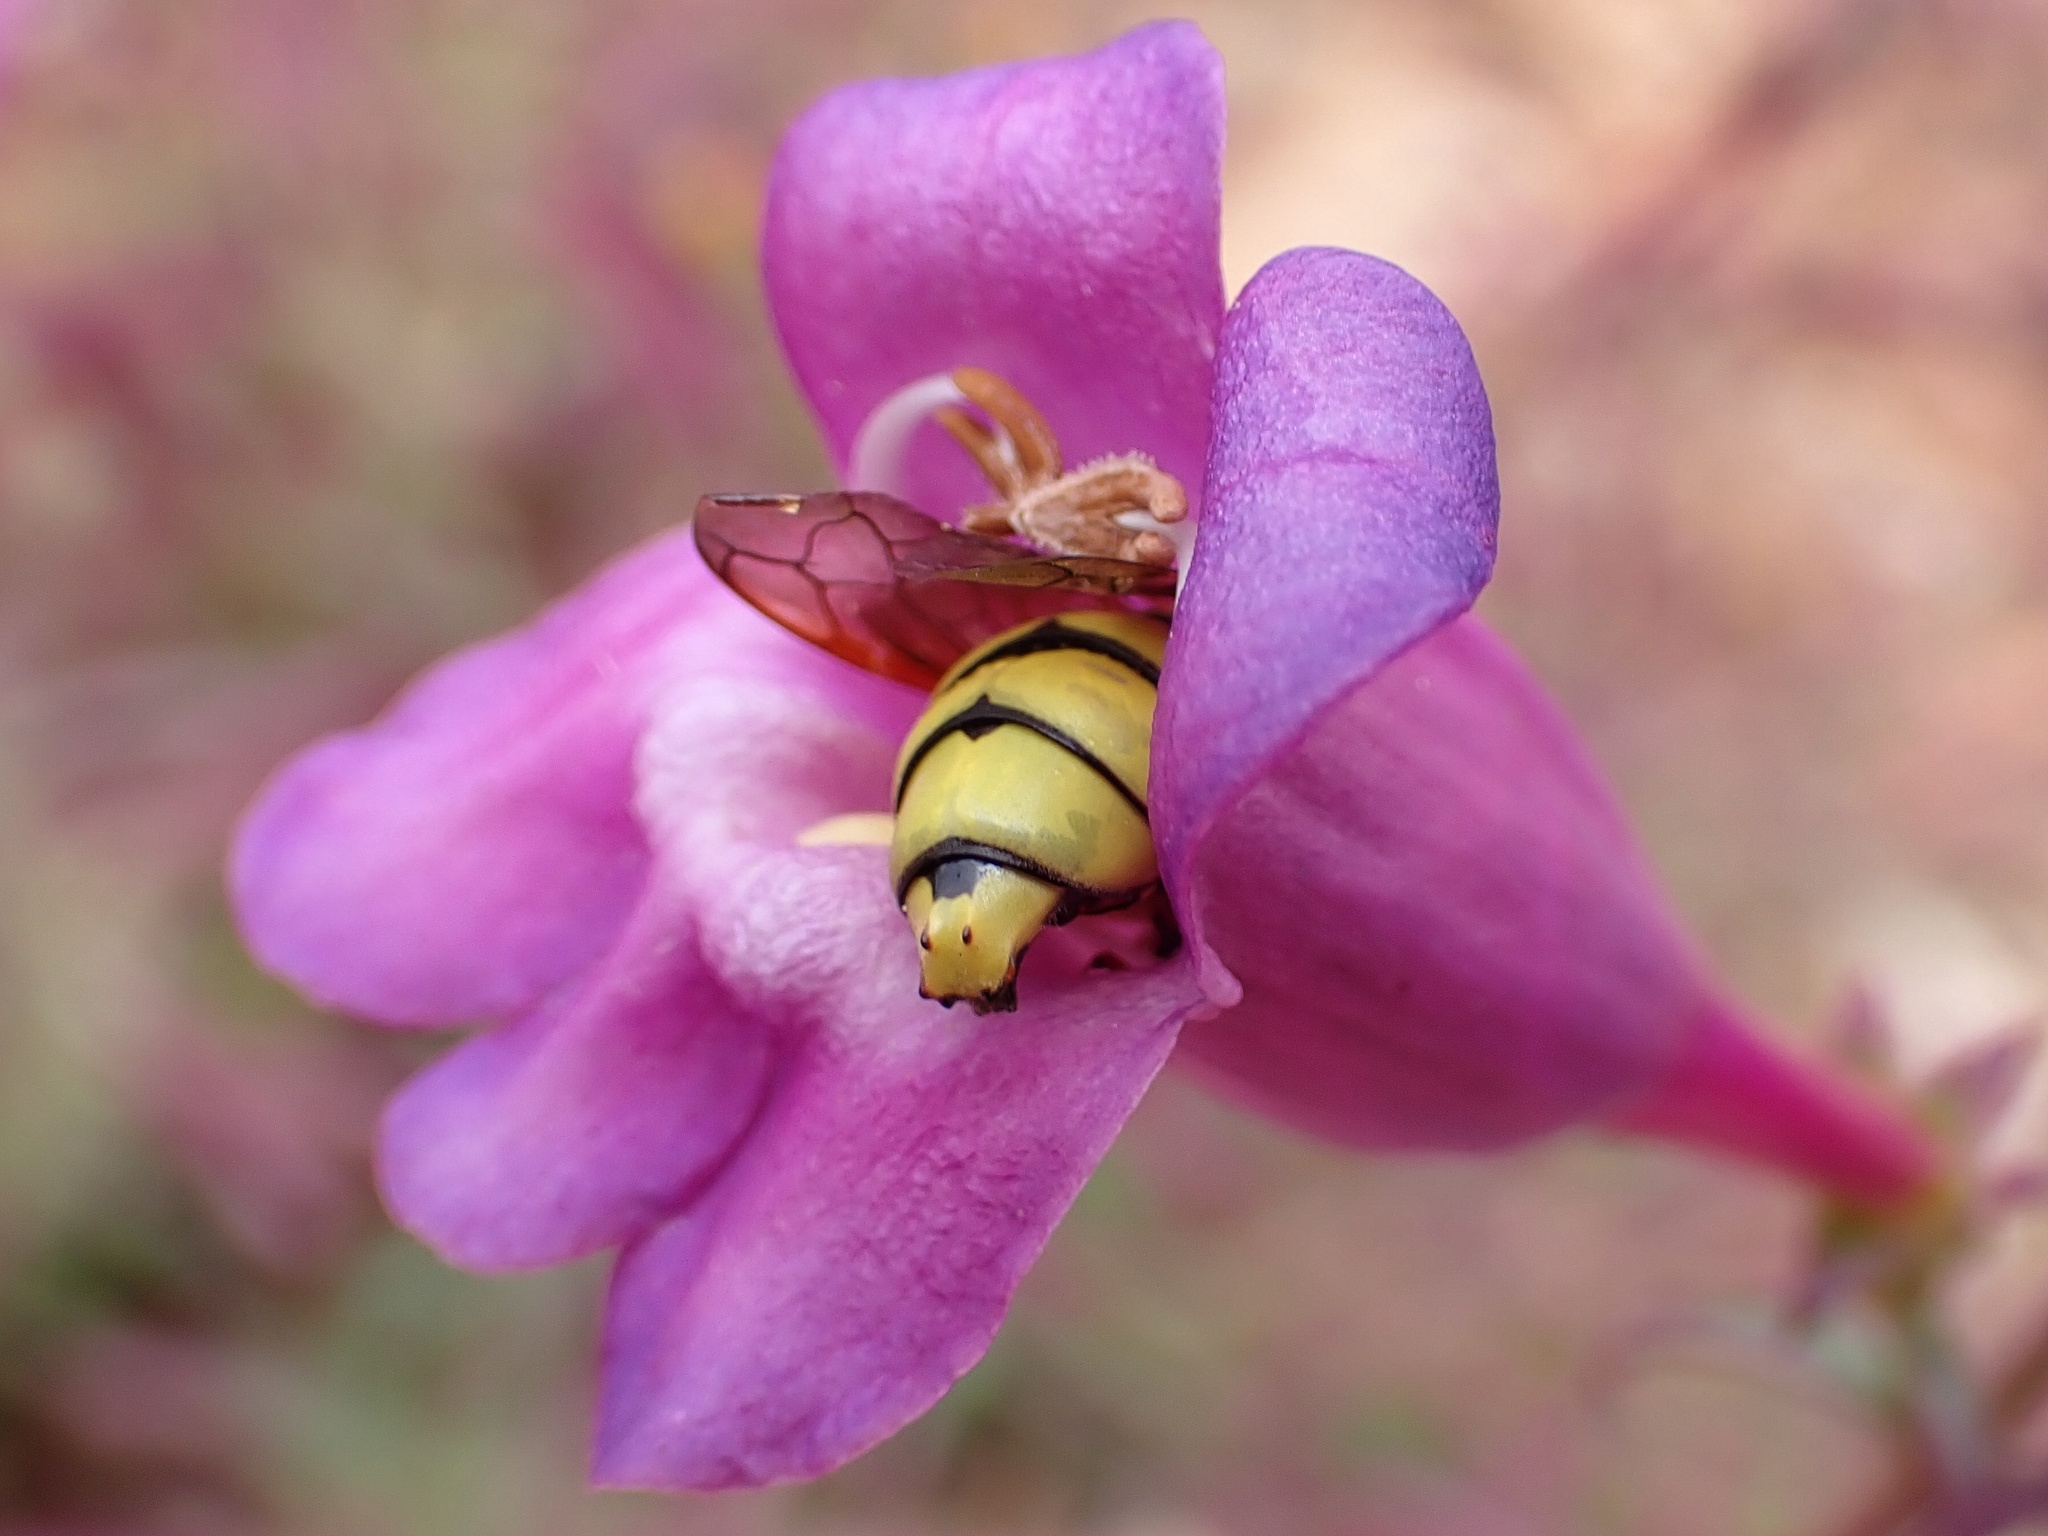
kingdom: Animalia
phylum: Arthropoda
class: Insecta
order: Hymenoptera
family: Masaridae
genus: Pseudomasaris
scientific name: Pseudomasaris vespoides
